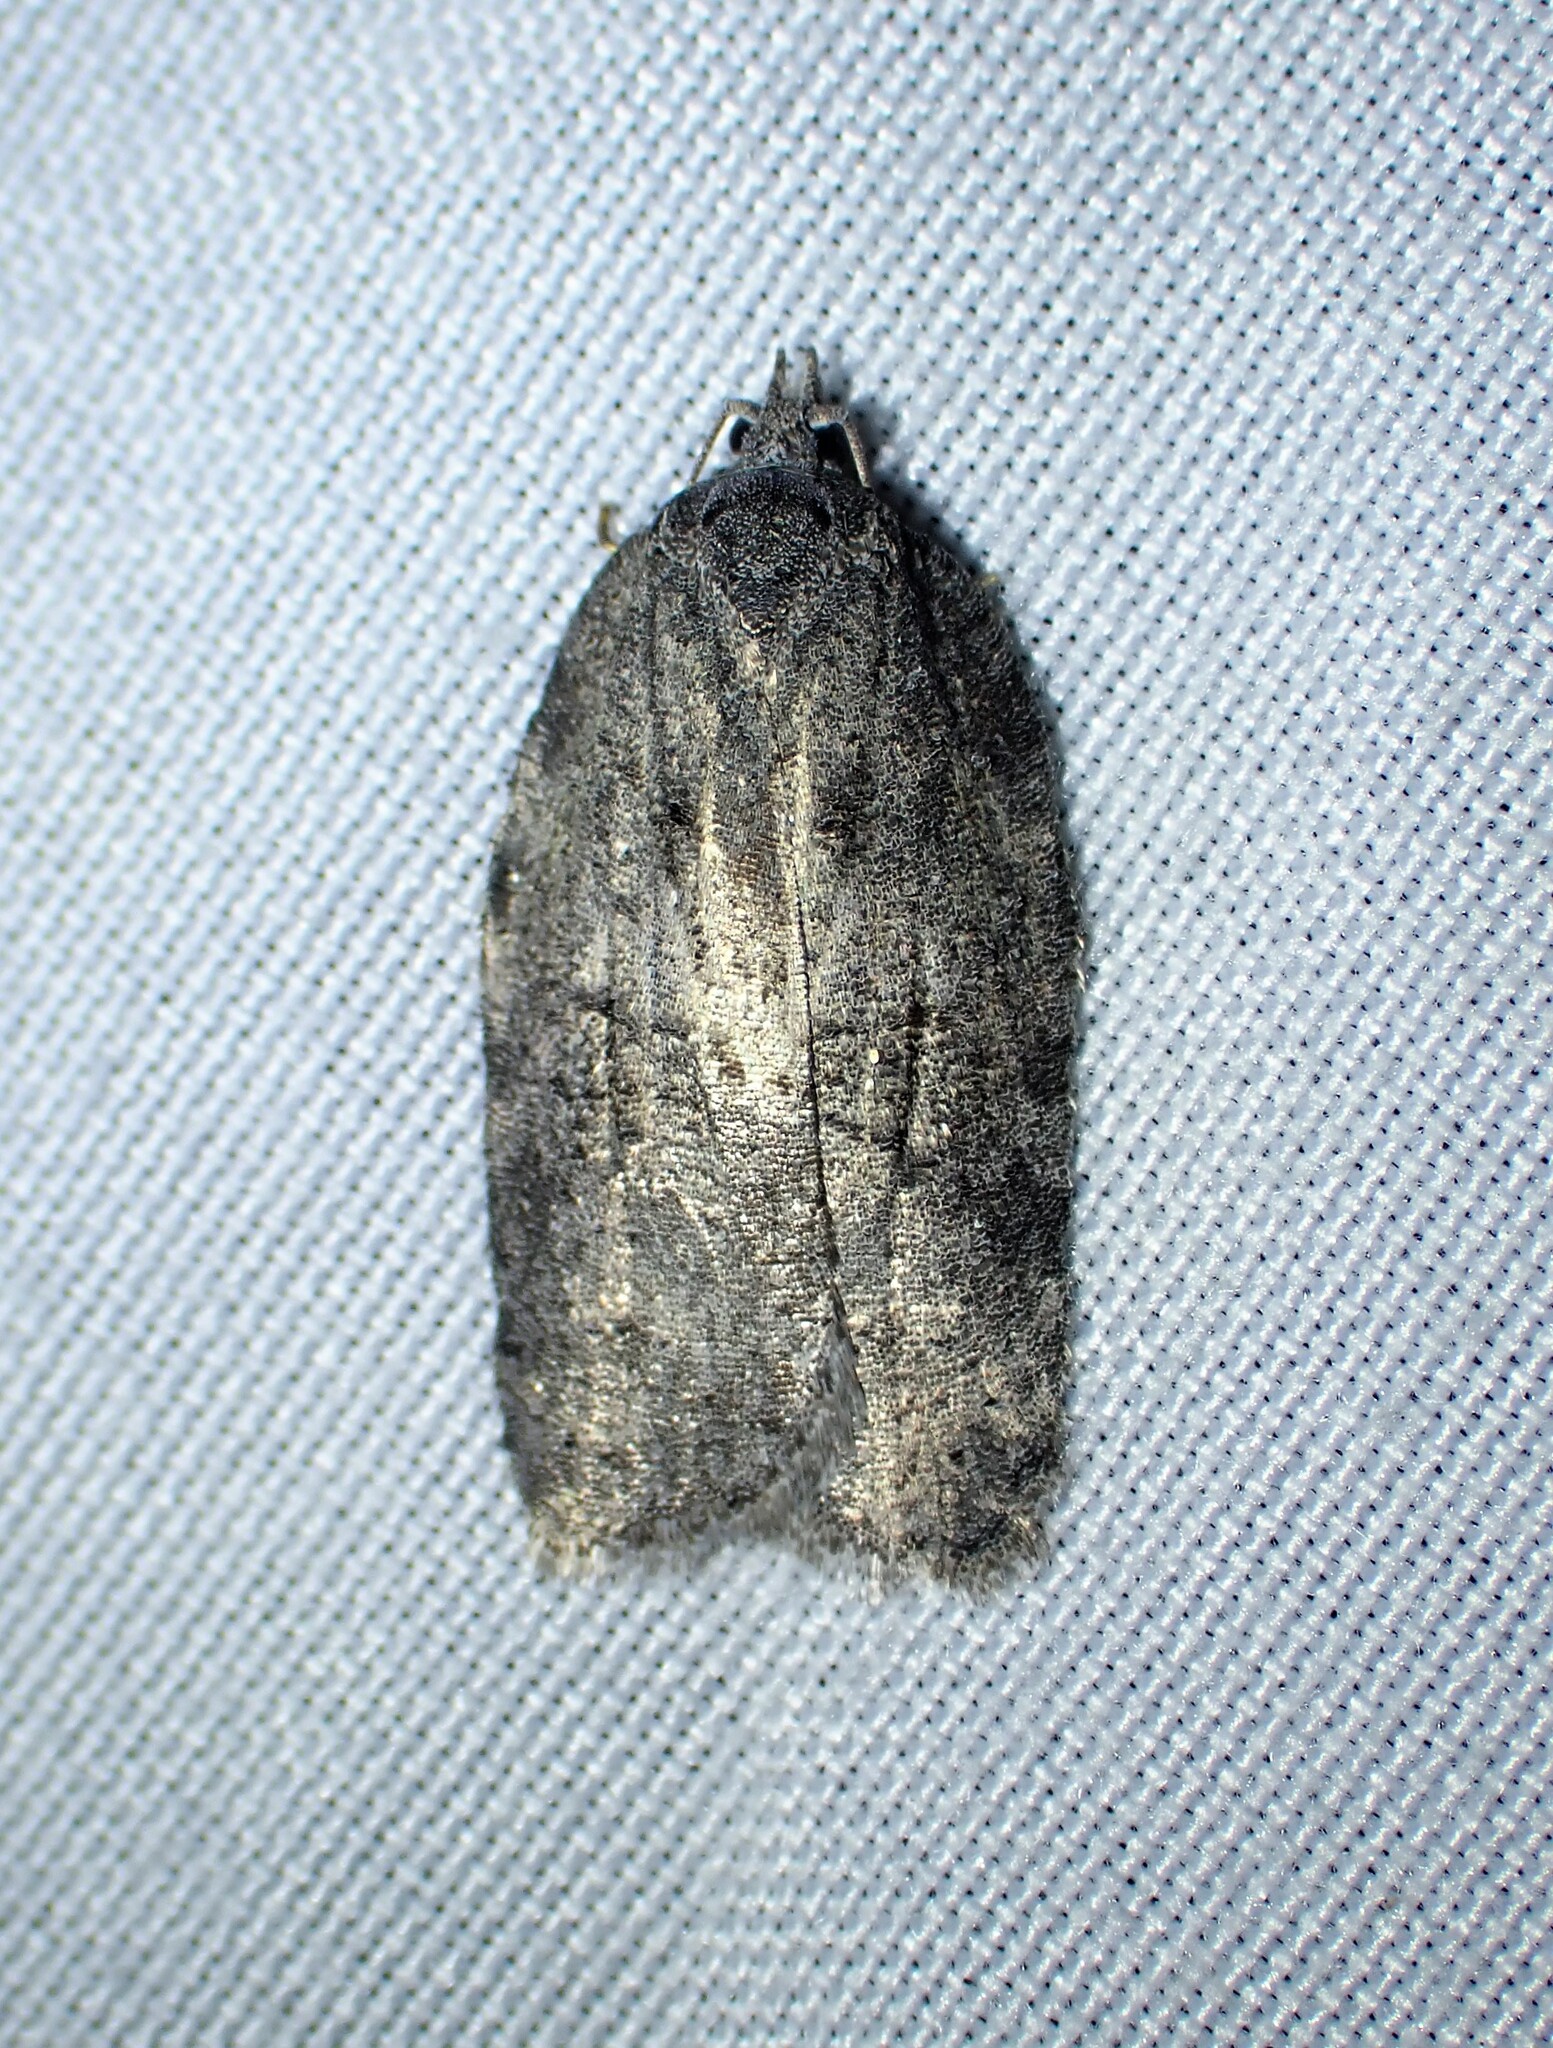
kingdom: Animalia
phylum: Arthropoda
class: Insecta
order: Lepidoptera
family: Tortricidae
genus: Acleris
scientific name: Acleris nigrolinea
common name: Black-lined acleris
